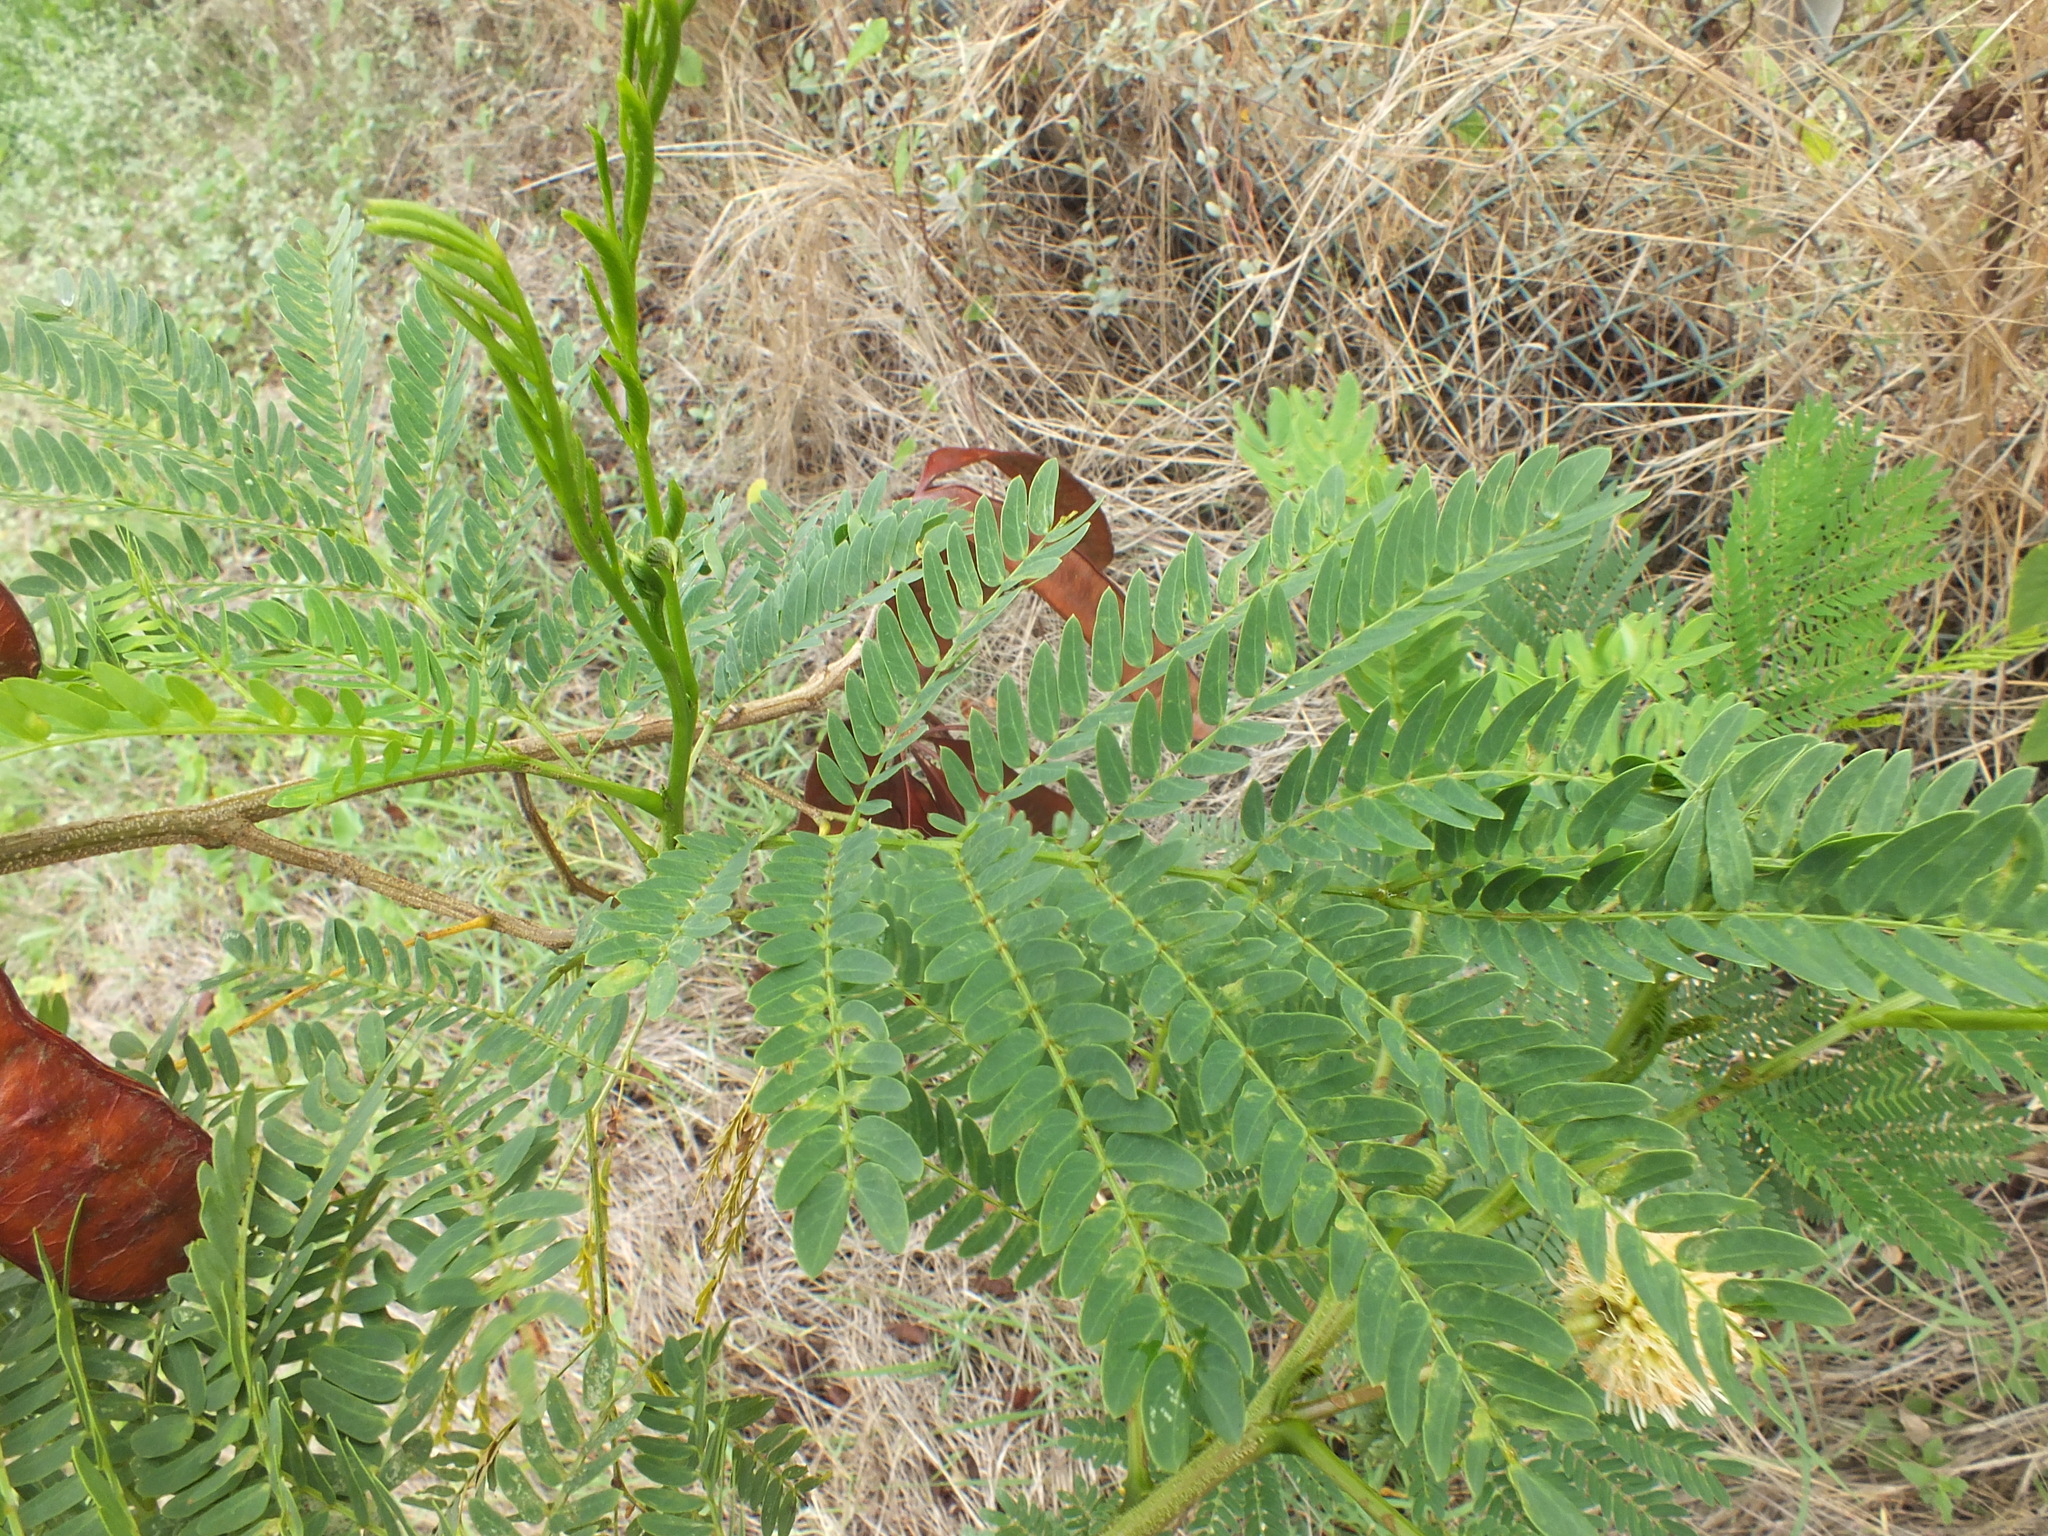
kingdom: Plantae
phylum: Tracheophyta
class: Magnoliopsida
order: Fabales
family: Fabaceae
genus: Leucaena
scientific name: Leucaena leucocephala
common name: White leadtree
